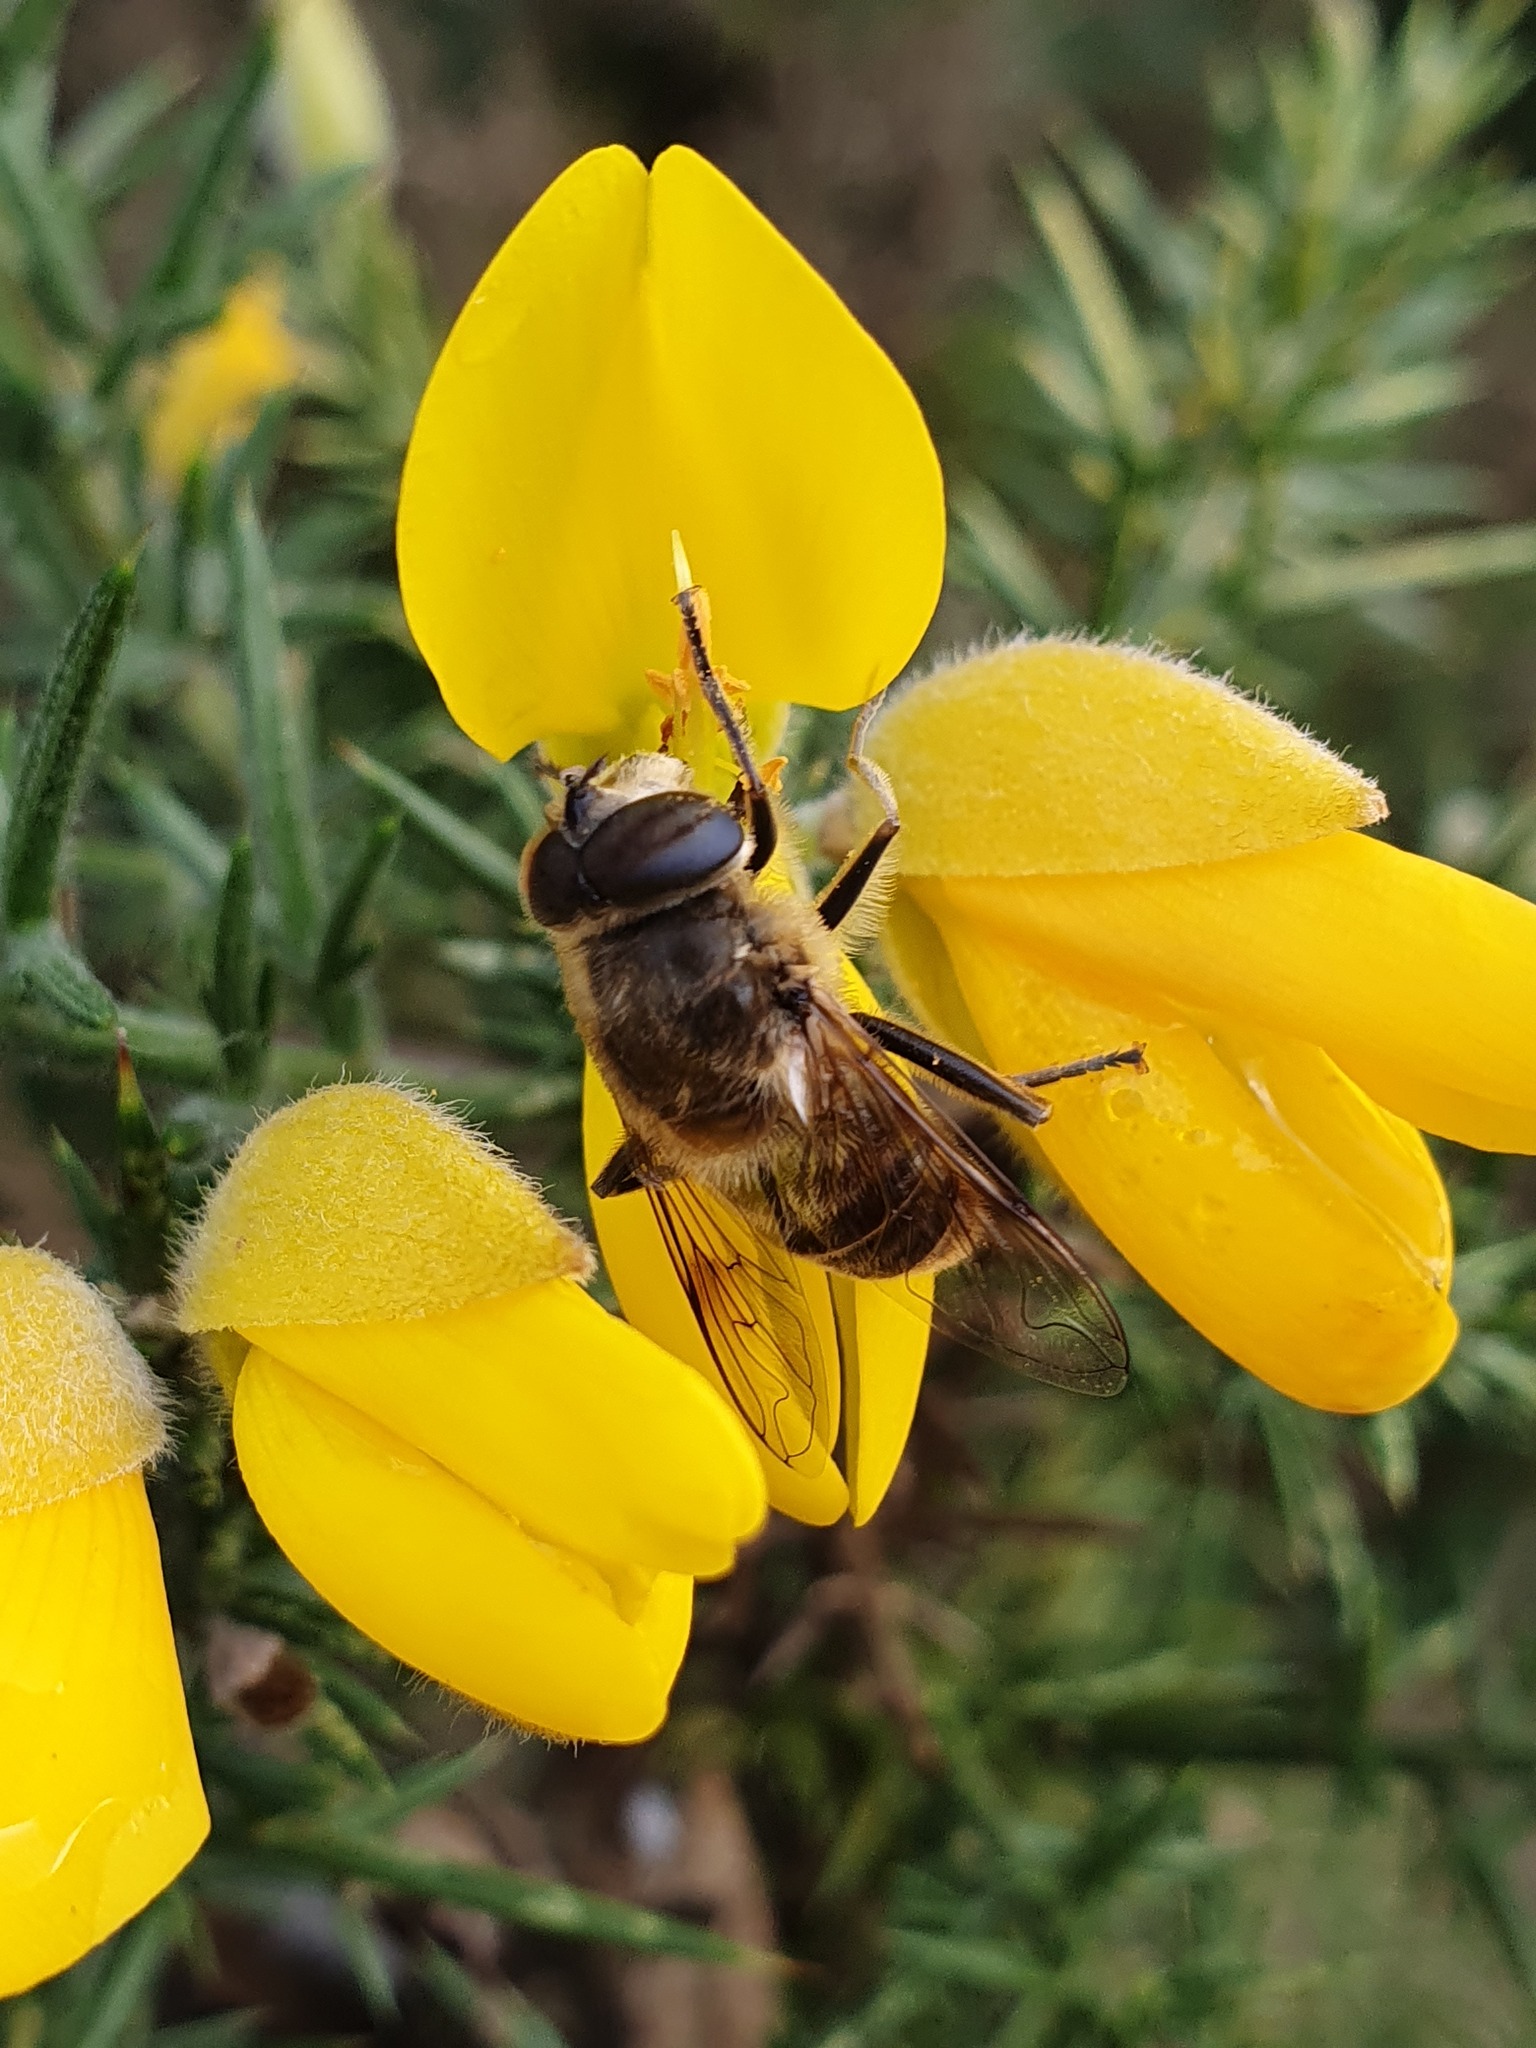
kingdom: Animalia
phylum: Arthropoda
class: Insecta
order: Diptera
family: Syrphidae
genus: Eristalis
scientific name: Eristalis tenax
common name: Drone fly
